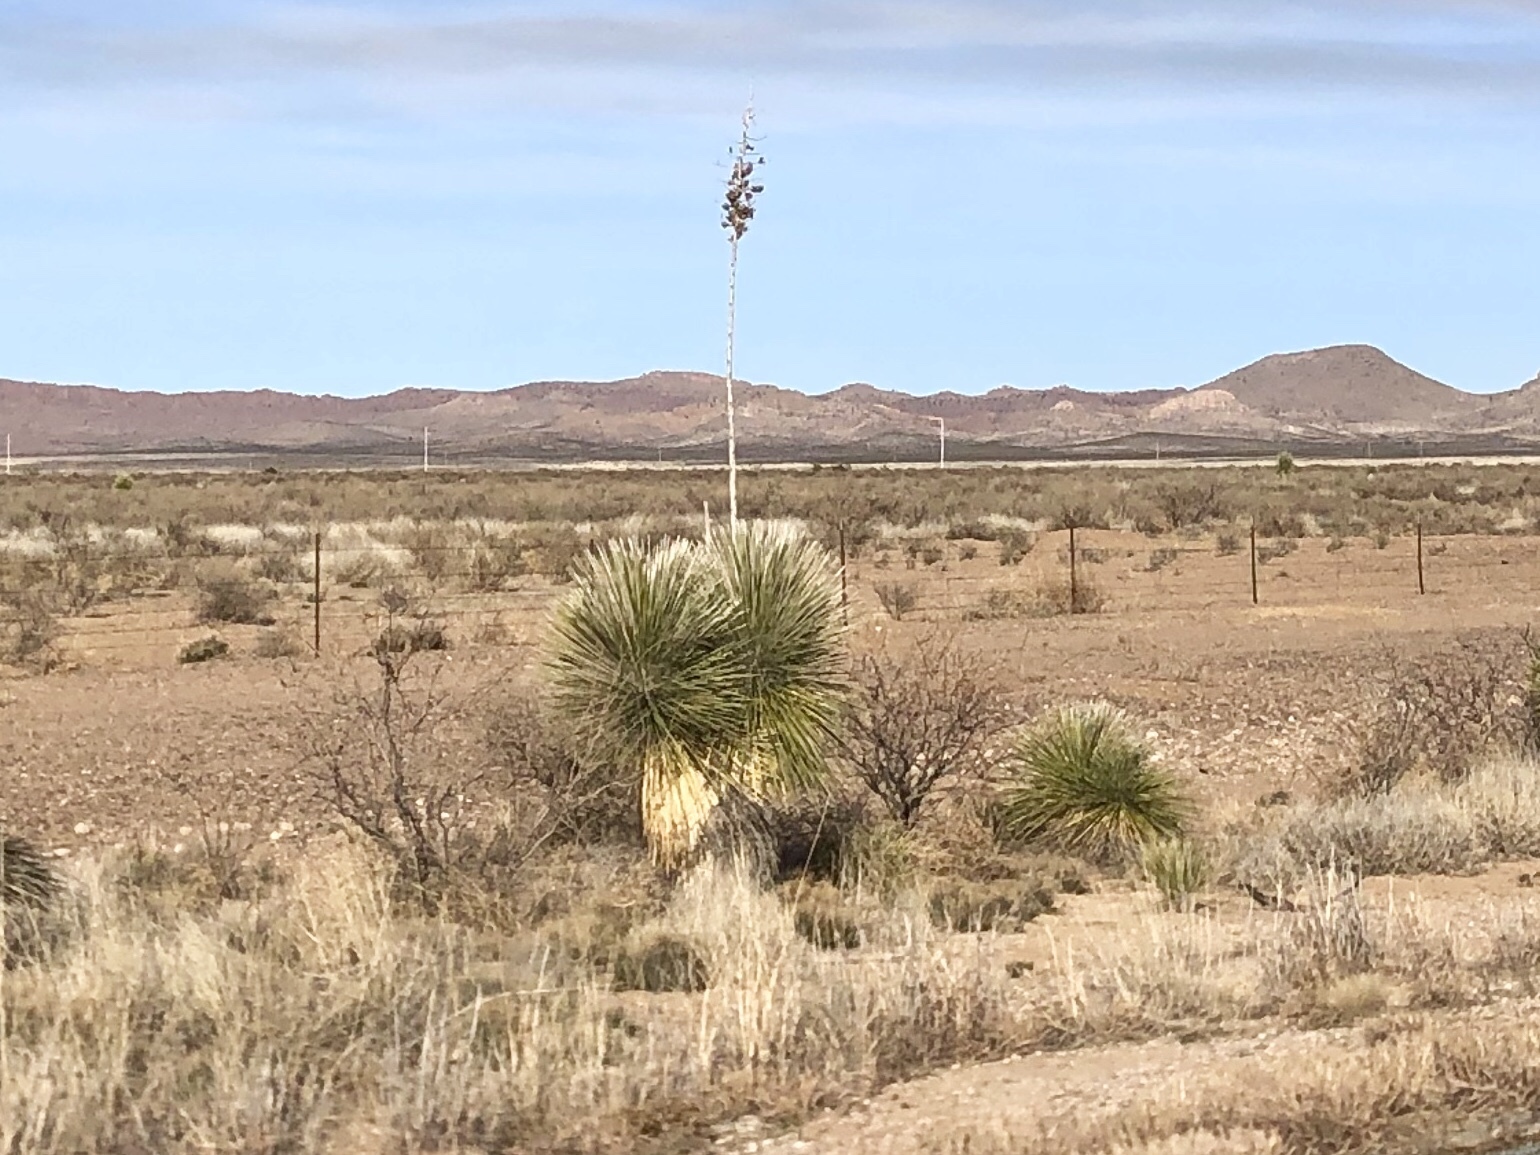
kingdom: Plantae
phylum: Tracheophyta
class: Liliopsida
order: Asparagales
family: Asparagaceae
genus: Yucca
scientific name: Yucca elata
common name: Palmella
